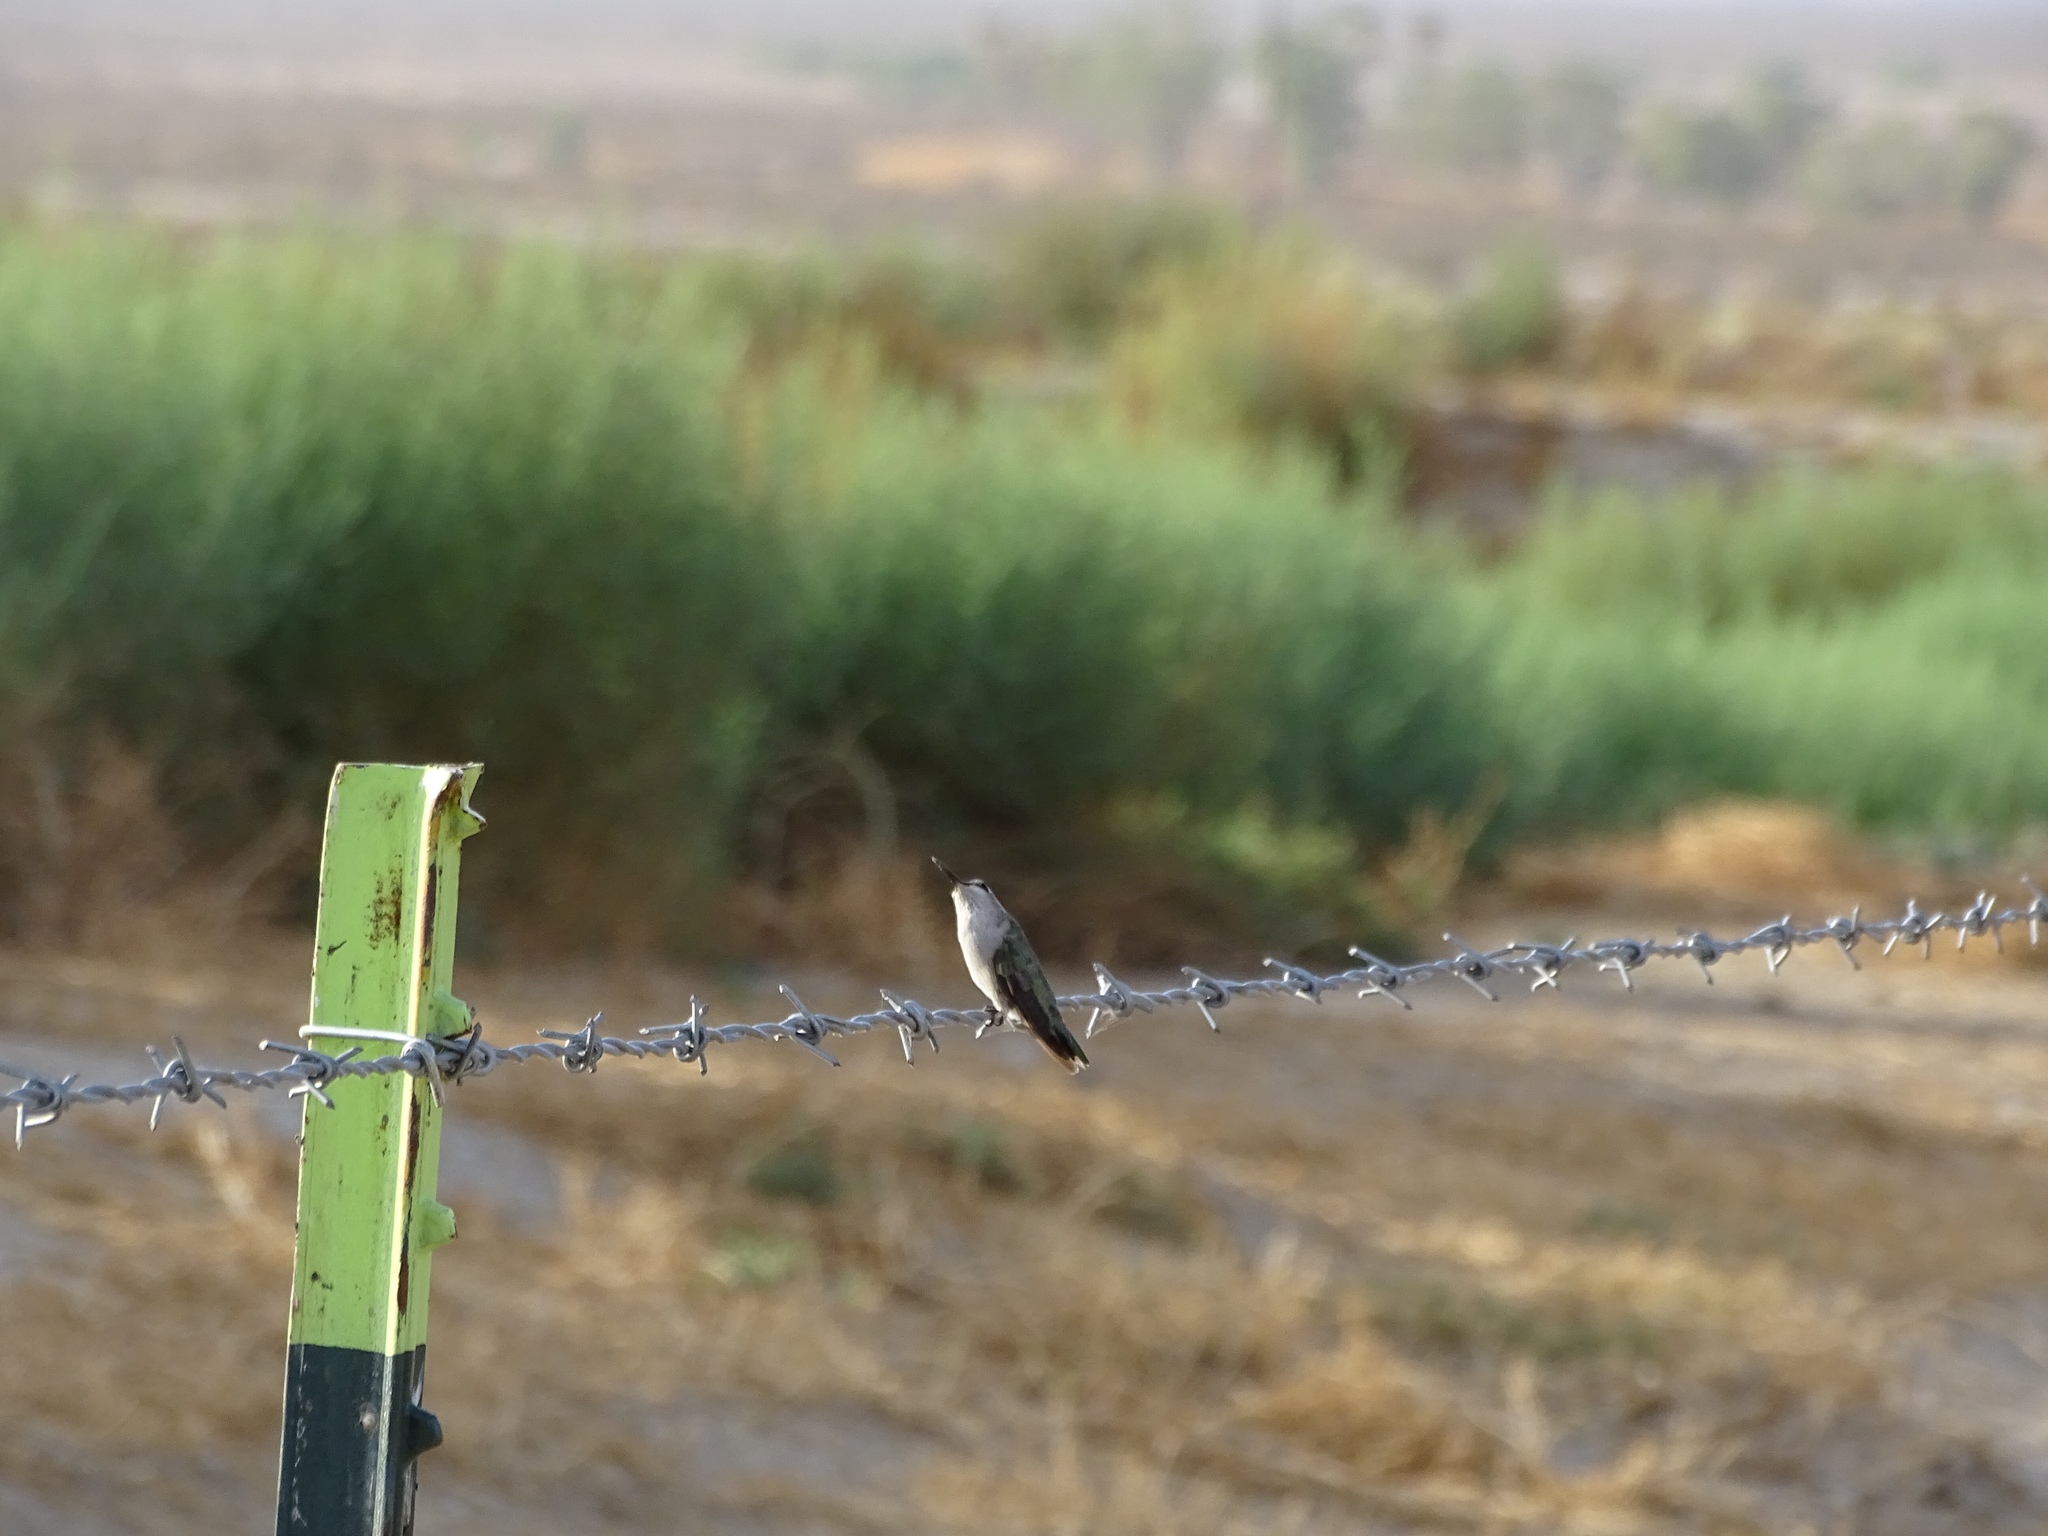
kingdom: Animalia
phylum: Chordata
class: Aves
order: Apodiformes
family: Trochilidae
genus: Calypte
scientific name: Calypte costae
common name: Costa's hummingbird
